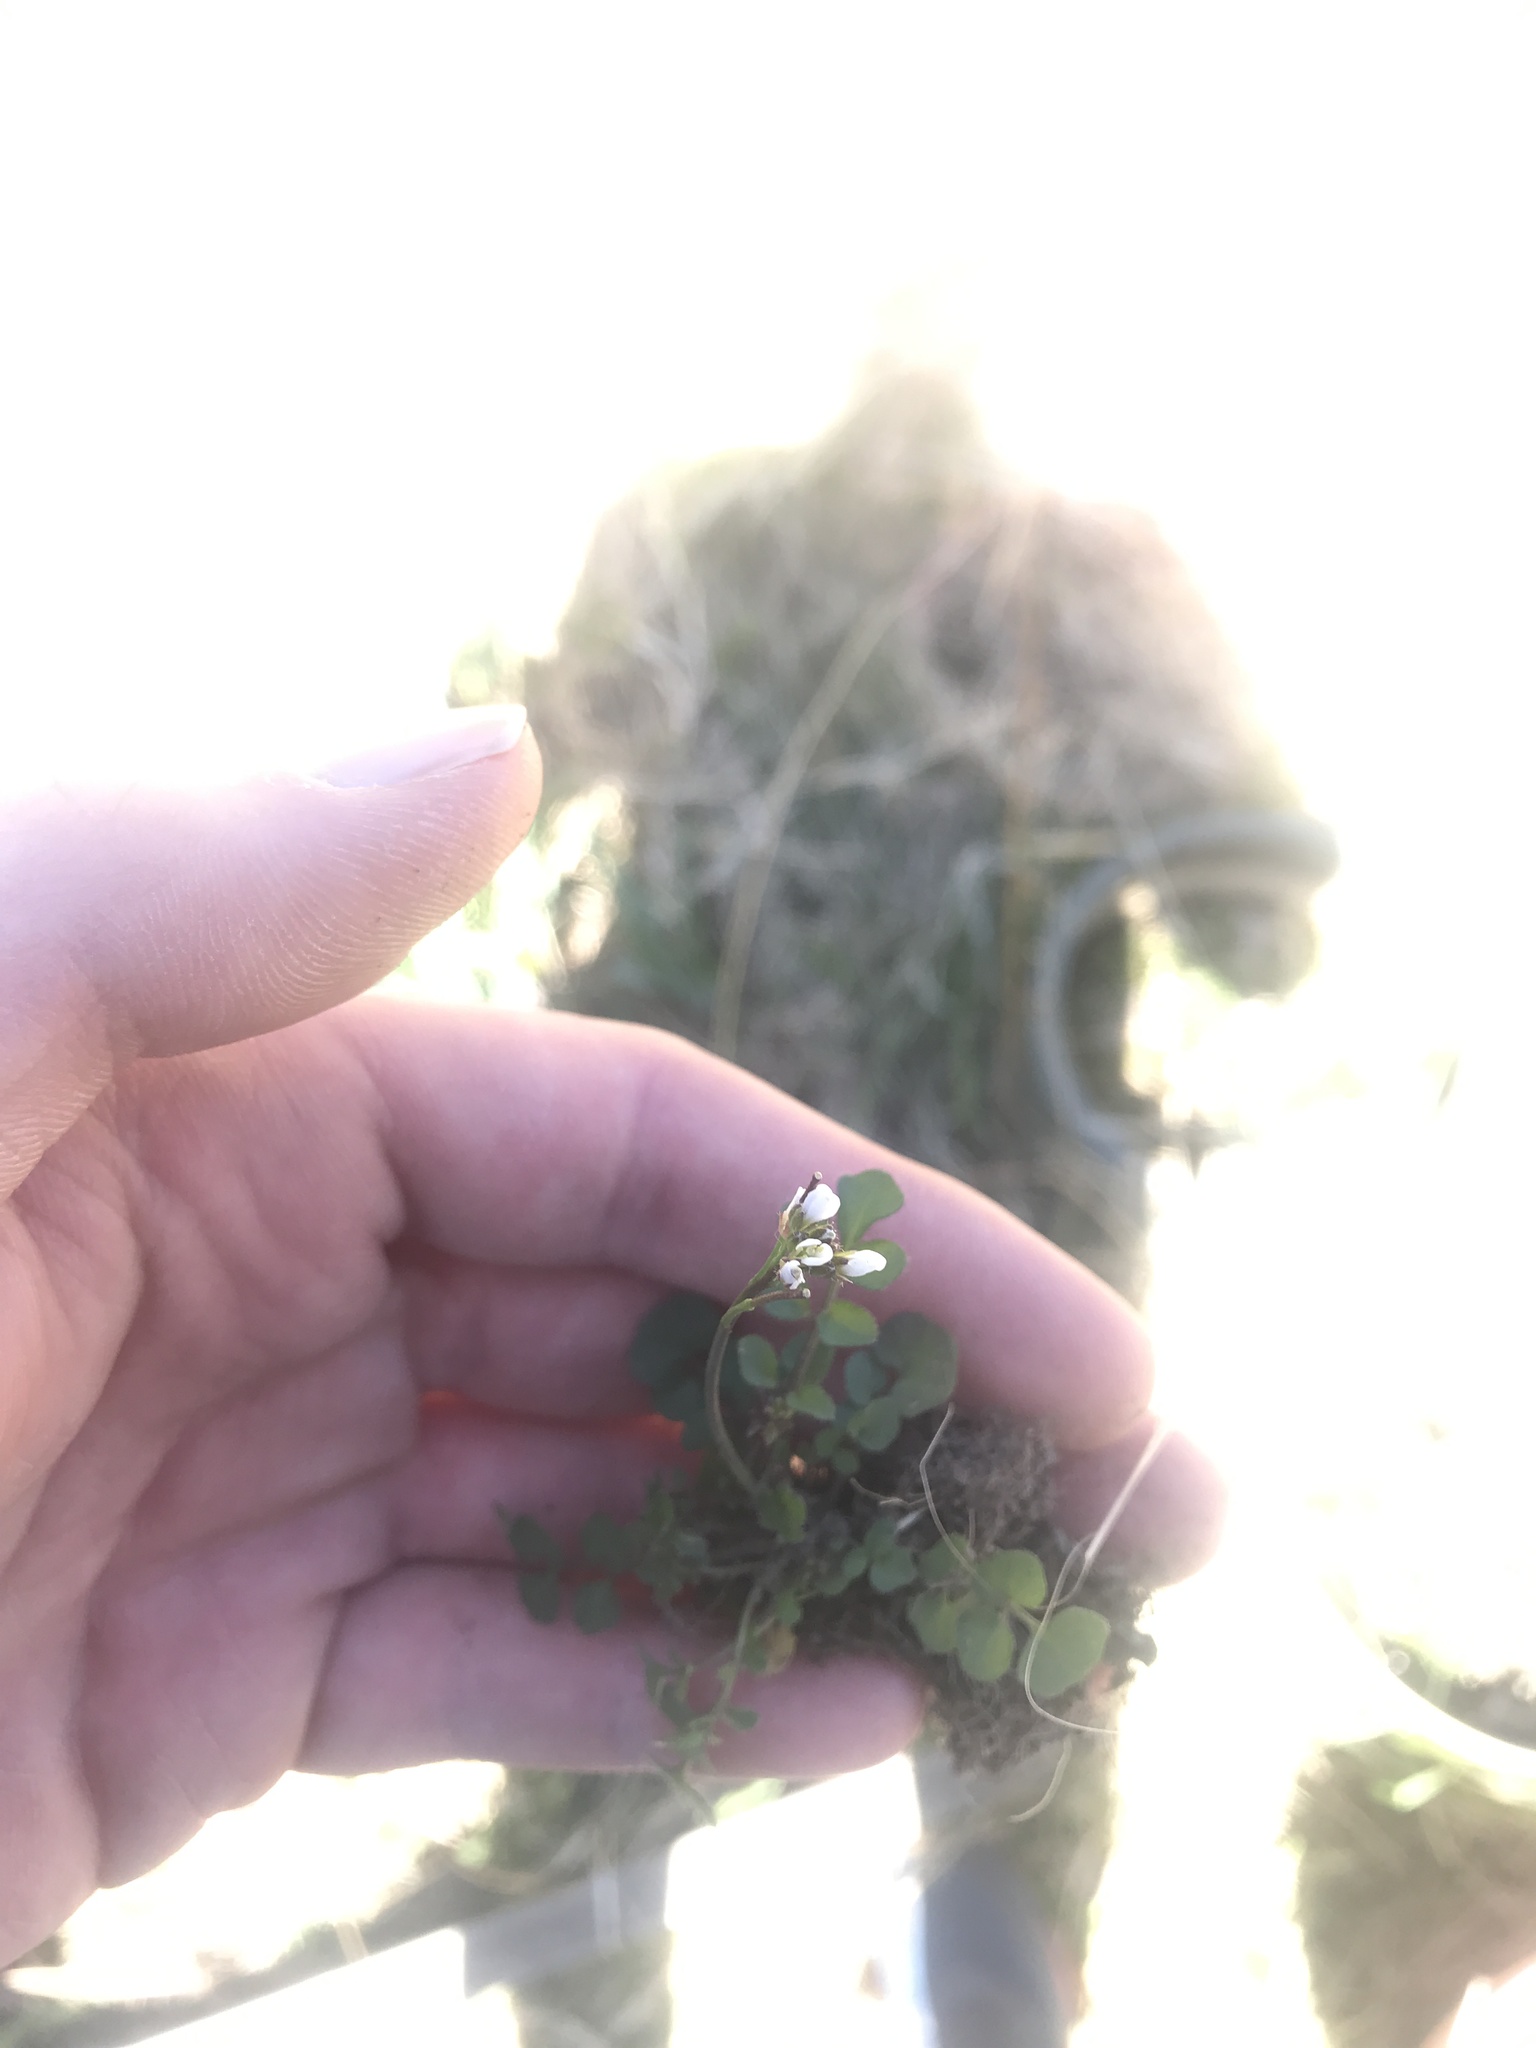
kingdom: Plantae
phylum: Tracheophyta
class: Magnoliopsida
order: Brassicales
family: Brassicaceae
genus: Cardamine
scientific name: Cardamine hirsuta
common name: Hairy bittercress
